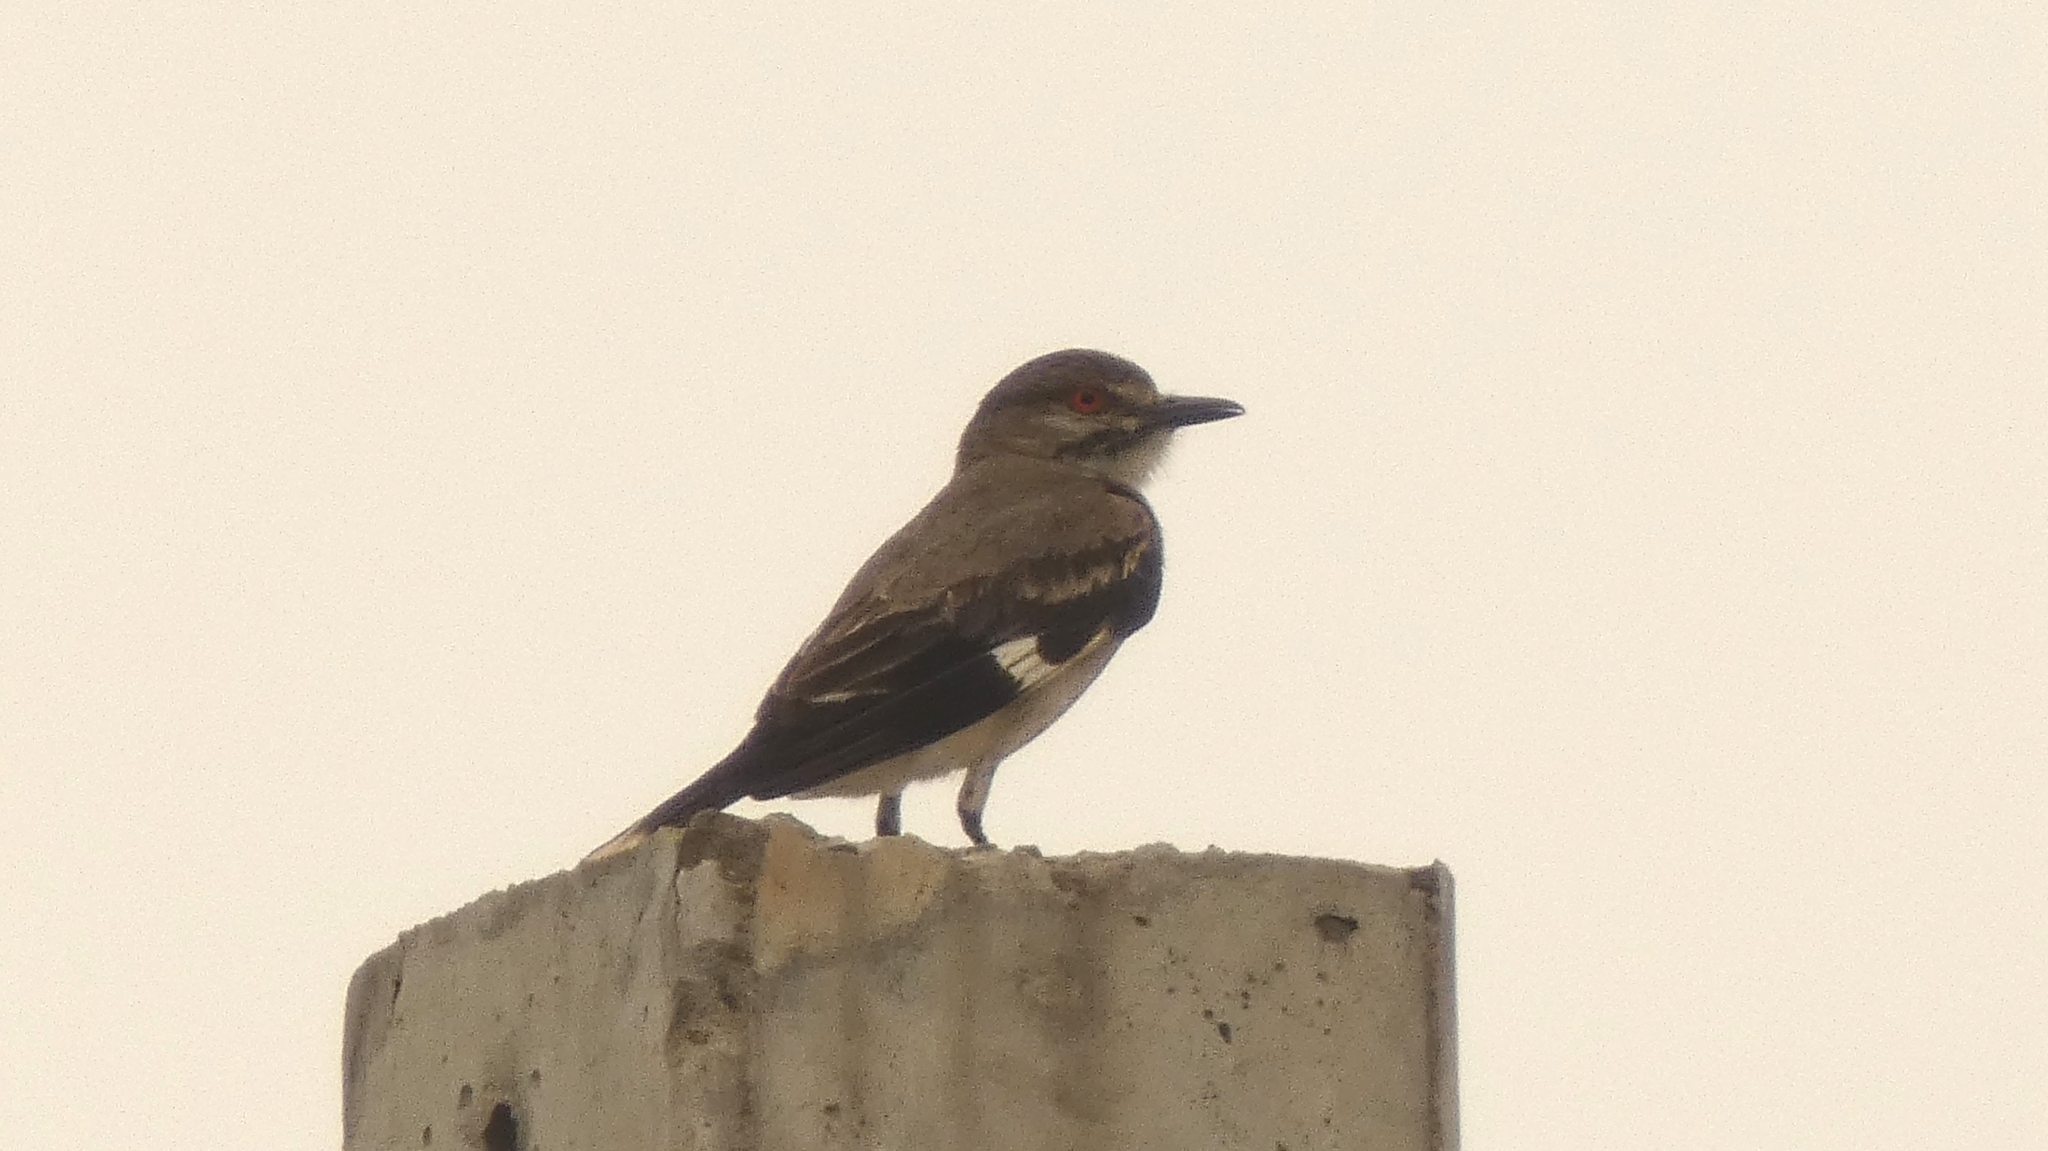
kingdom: Animalia
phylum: Chordata
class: Aves
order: Passeriformes
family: Tyrannidae
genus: Xolmis
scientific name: Xolmis cinereus
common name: Grey monjita
